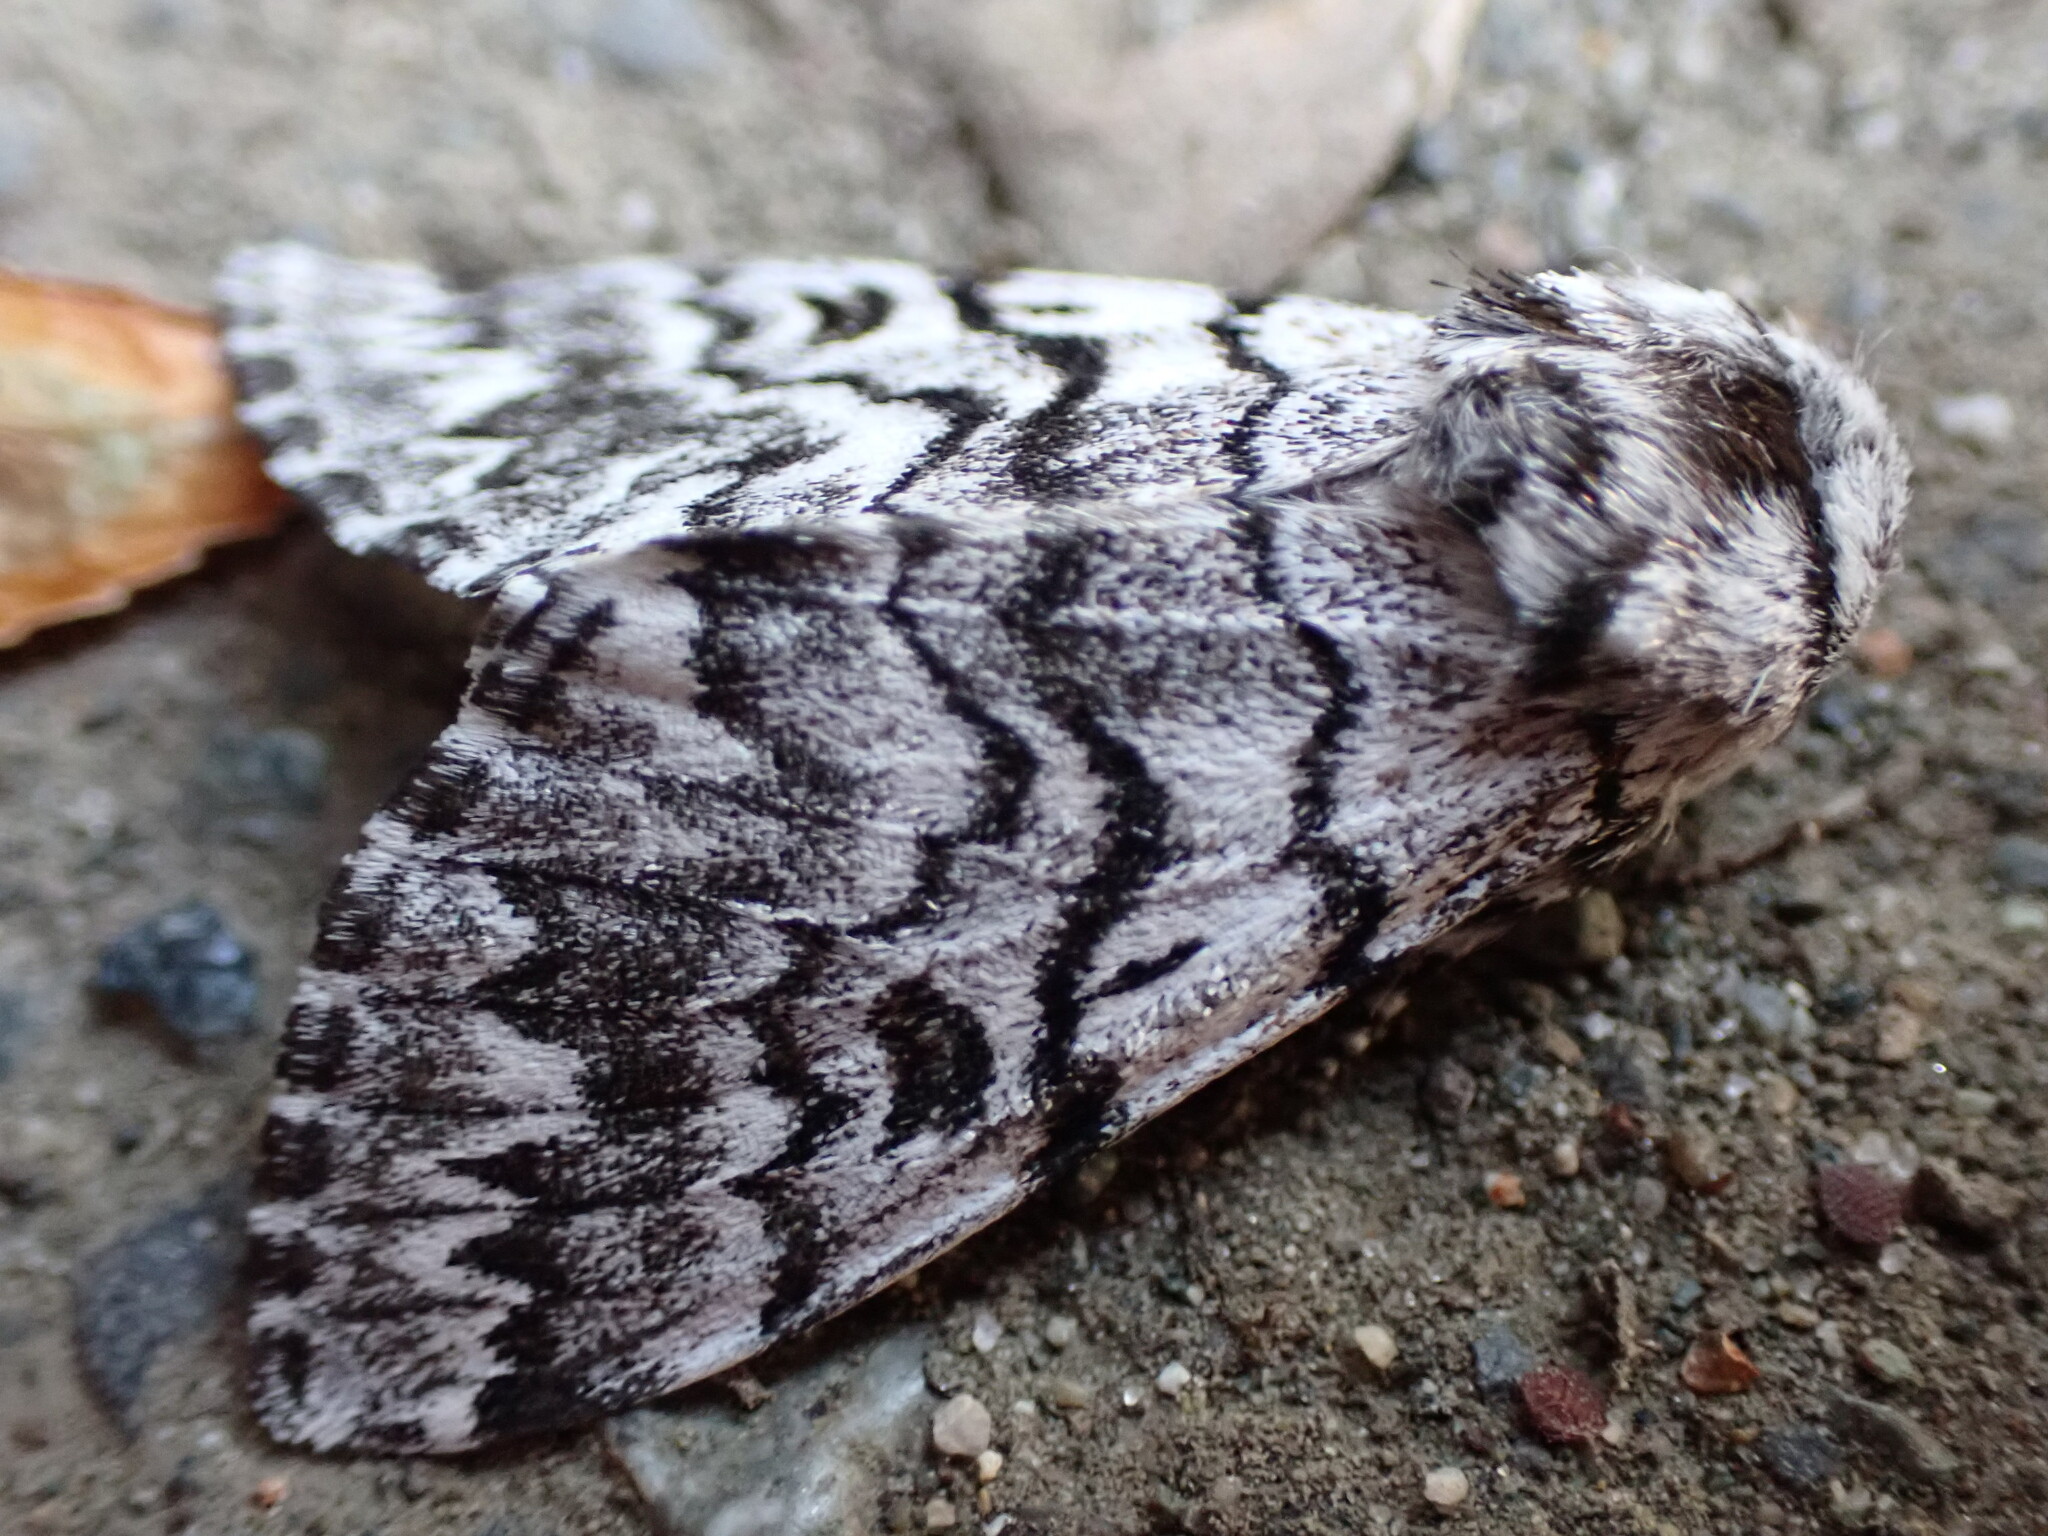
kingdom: Animalia
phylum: Arthropoda
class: Insecta
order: Lepidoptera
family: Noctuidae
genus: Panthea
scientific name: Panthea virginarius
